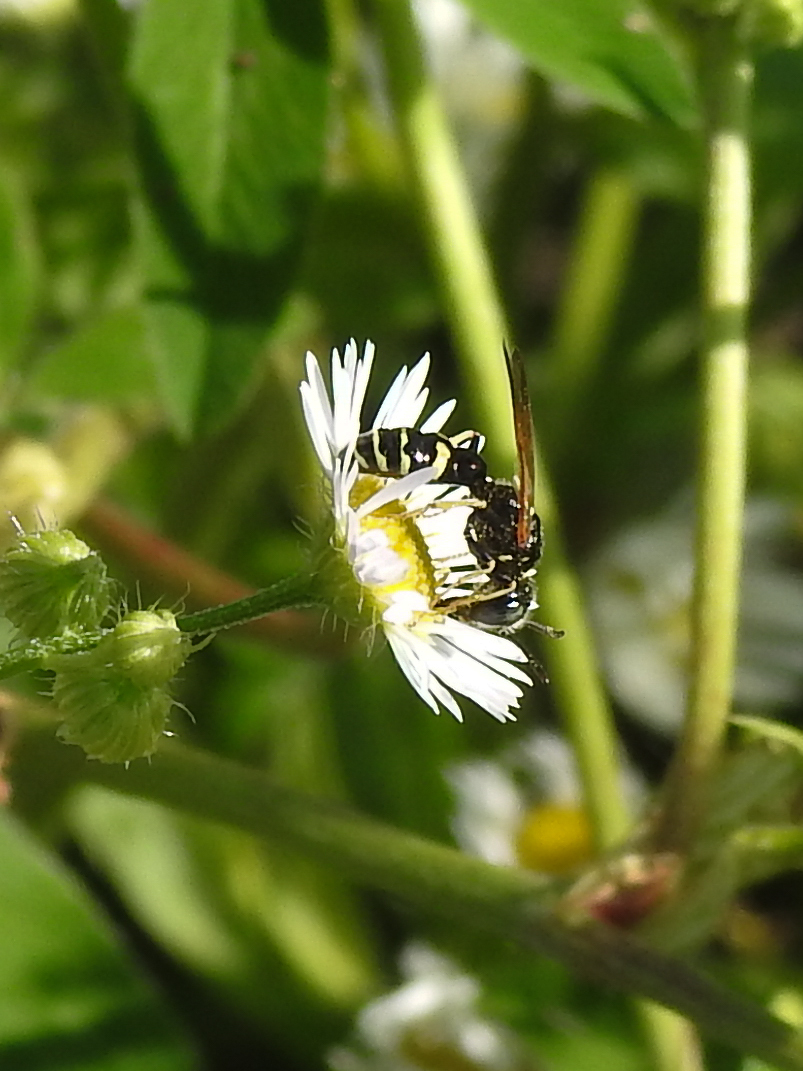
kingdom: Animalia
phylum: Arthropoda
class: Insecta
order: Hymenoptera
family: Crabronidae
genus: Philanthus
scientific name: Philanthus bilunatus
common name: Two moons beewolf
